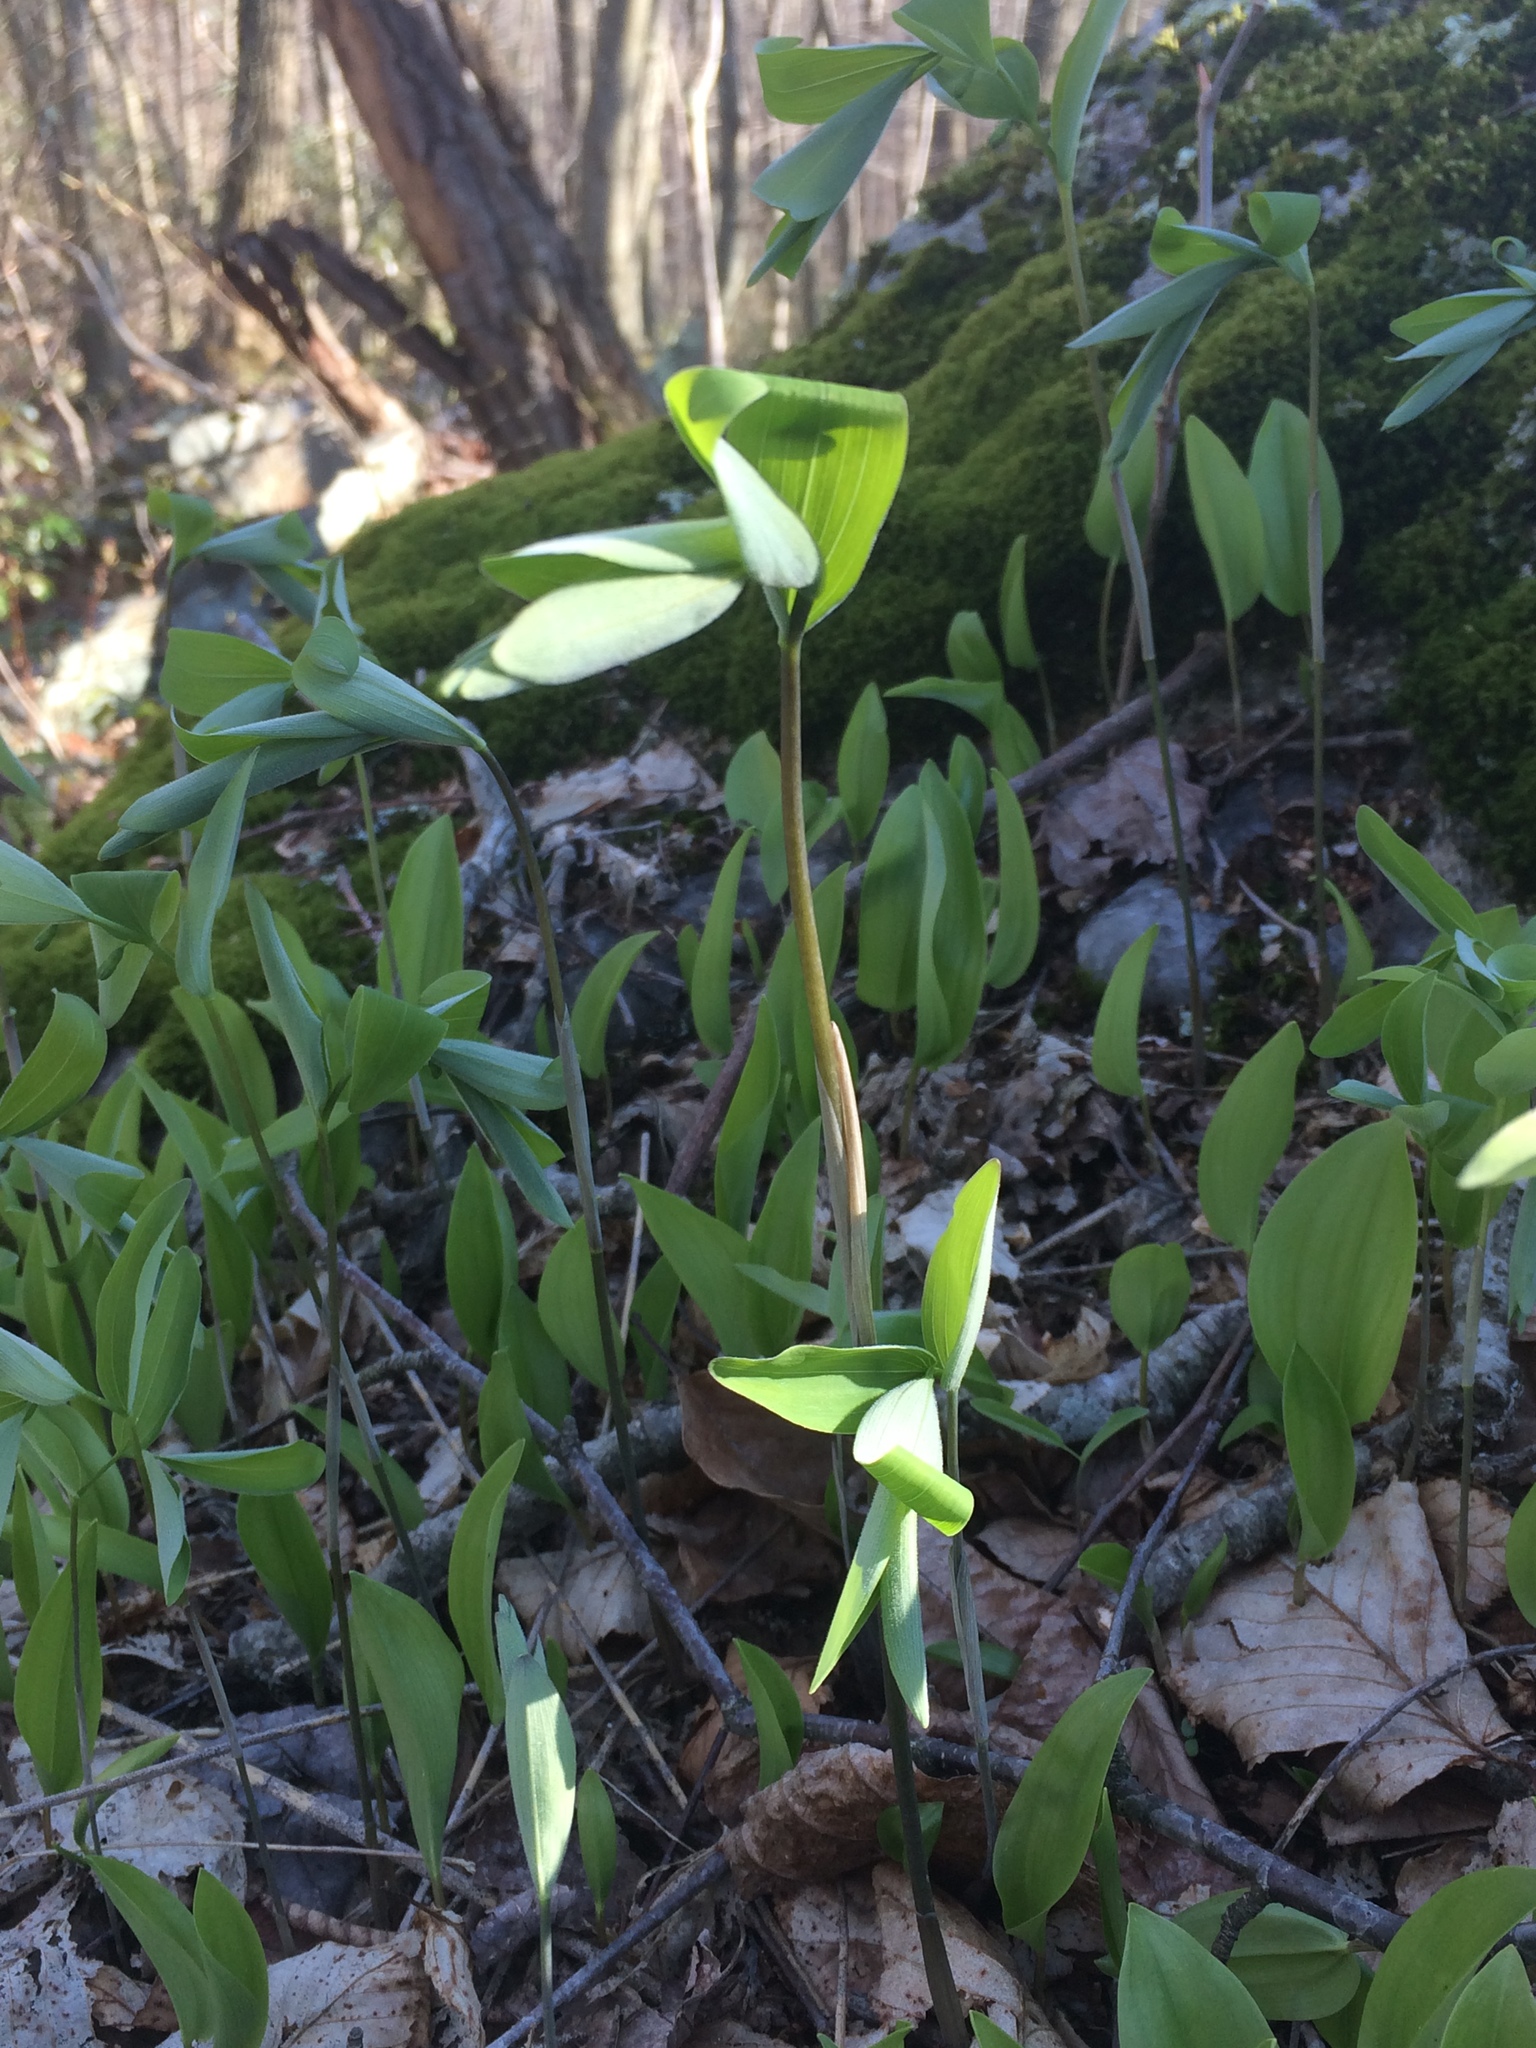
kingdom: Plantae
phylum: Tracheophyta
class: Liliopsida
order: Asparagales
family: Asparagaceae
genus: Maianthemum
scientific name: Maianthemum canadense
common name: False lily-of-the-valley
